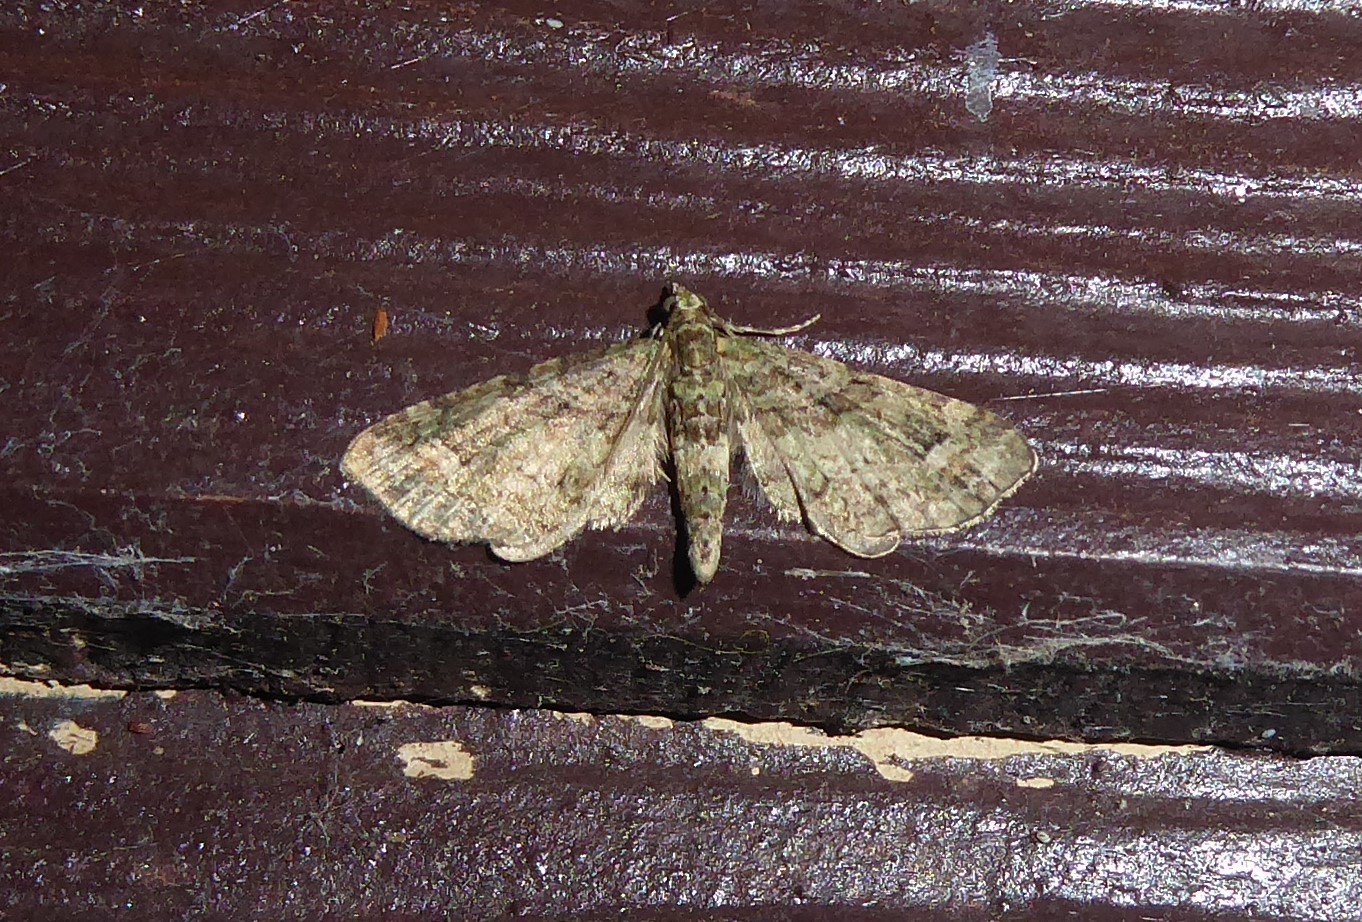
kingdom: Animalia
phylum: Arthropoda
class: Insecta
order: Lepidoptera
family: Geometridae
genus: Idaea
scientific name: Idaea mutanda
